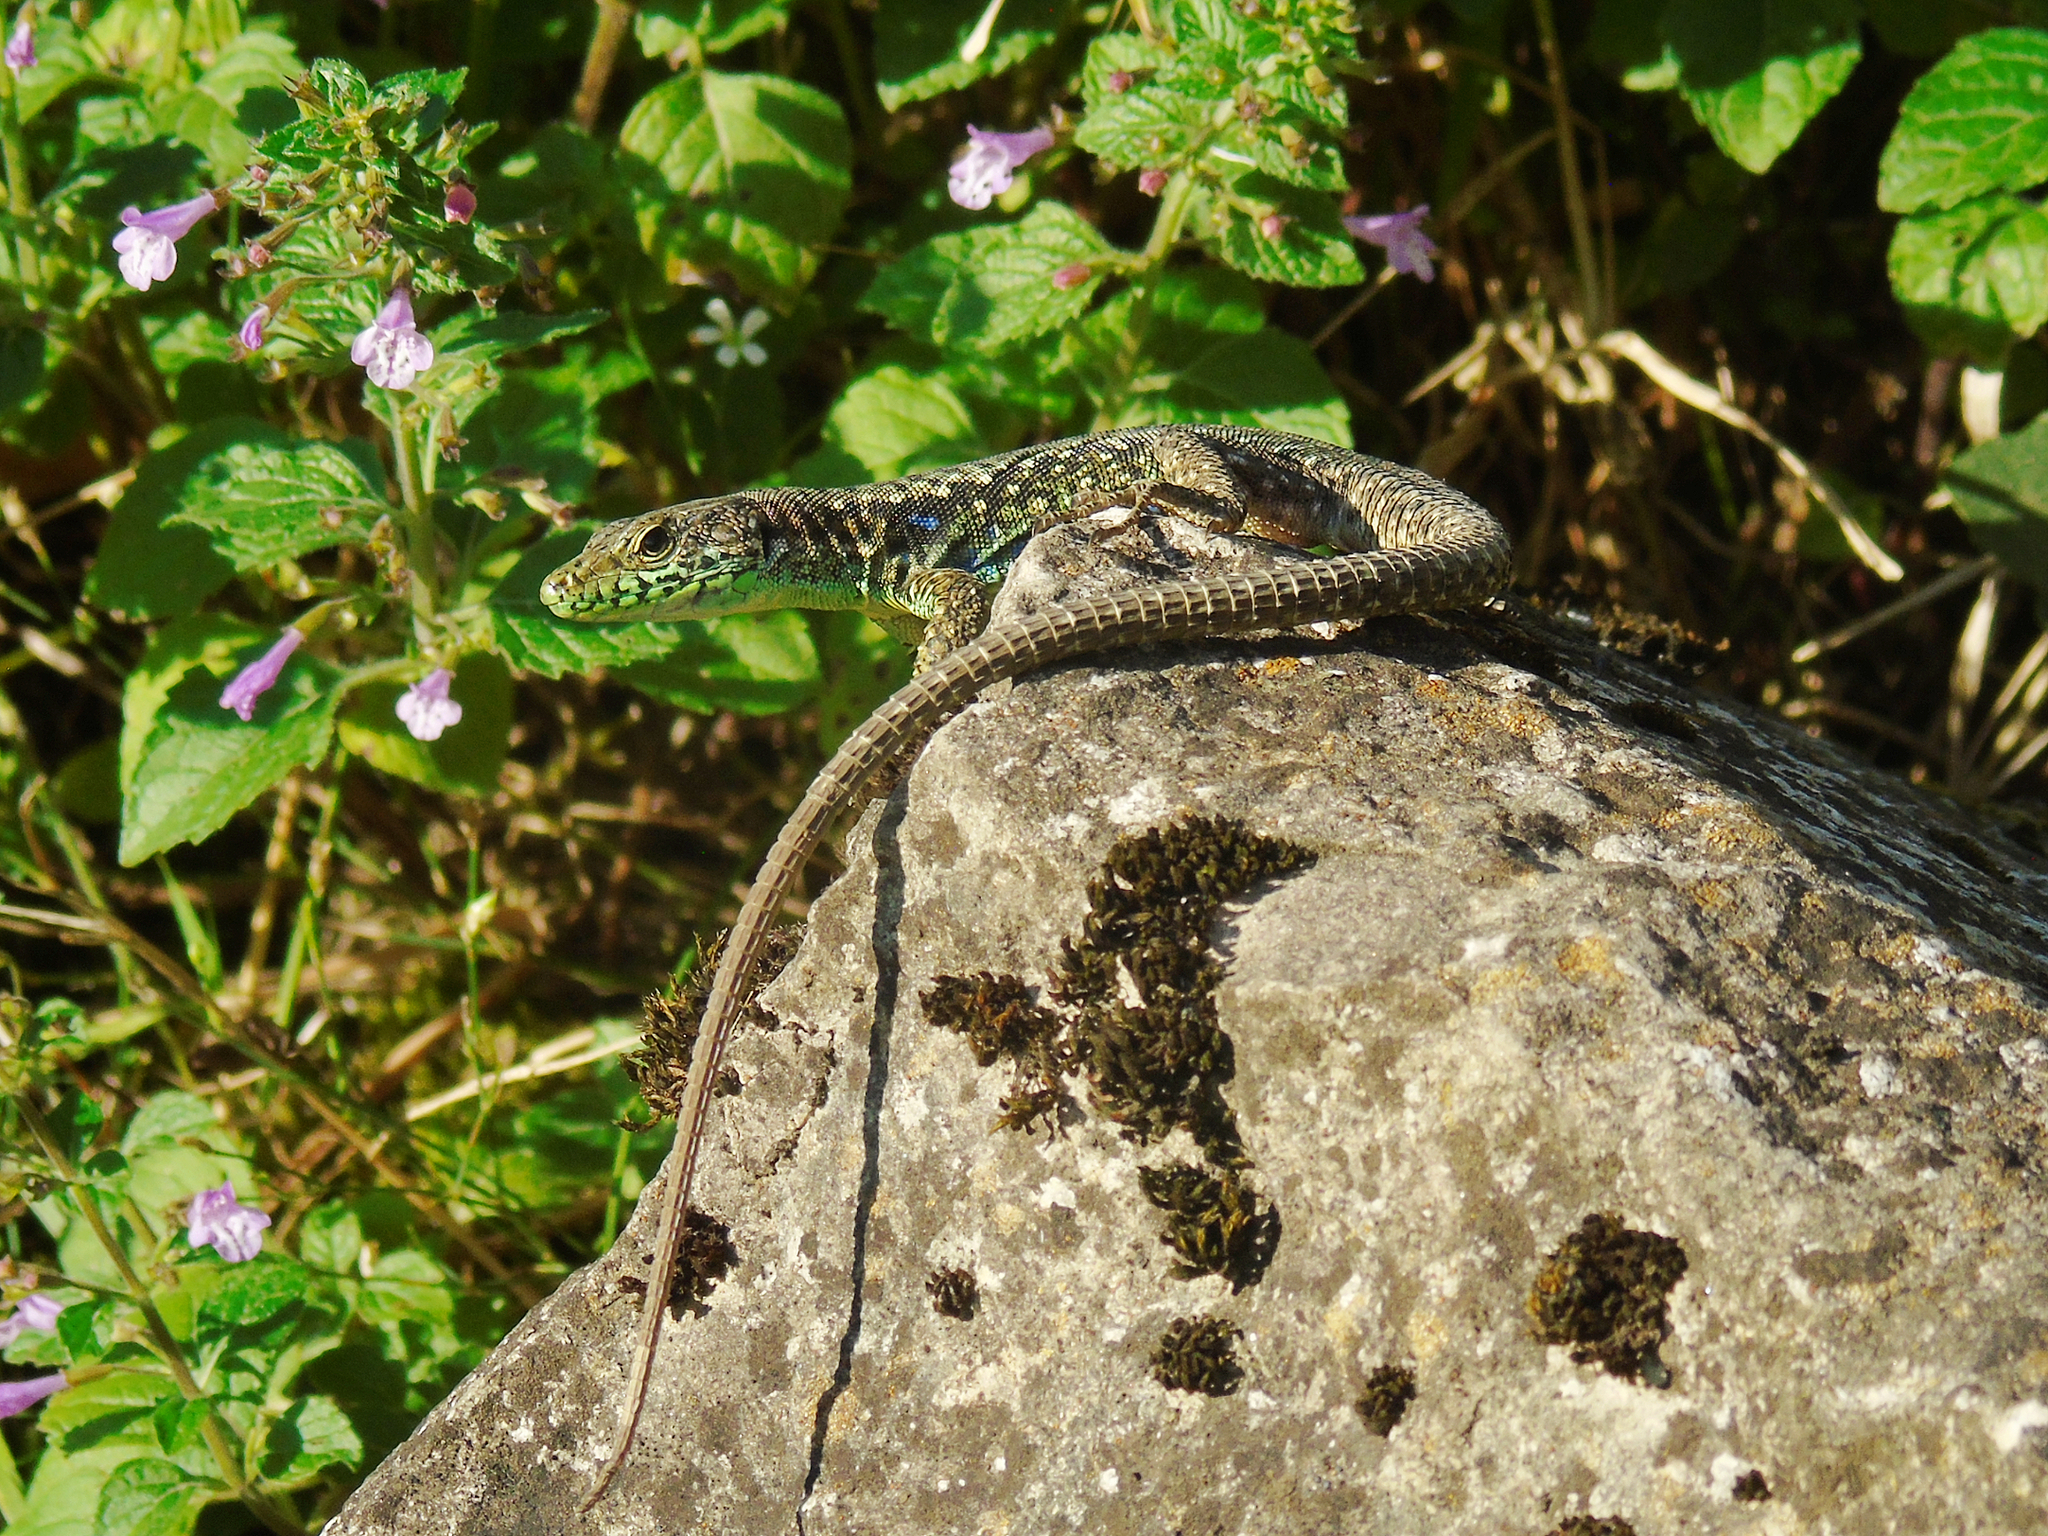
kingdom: Animalia
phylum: Chordata
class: Squamata
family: Lacertidae
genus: Darevskia
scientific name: Darevskia rudis
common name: Spiny-tailed lizard
